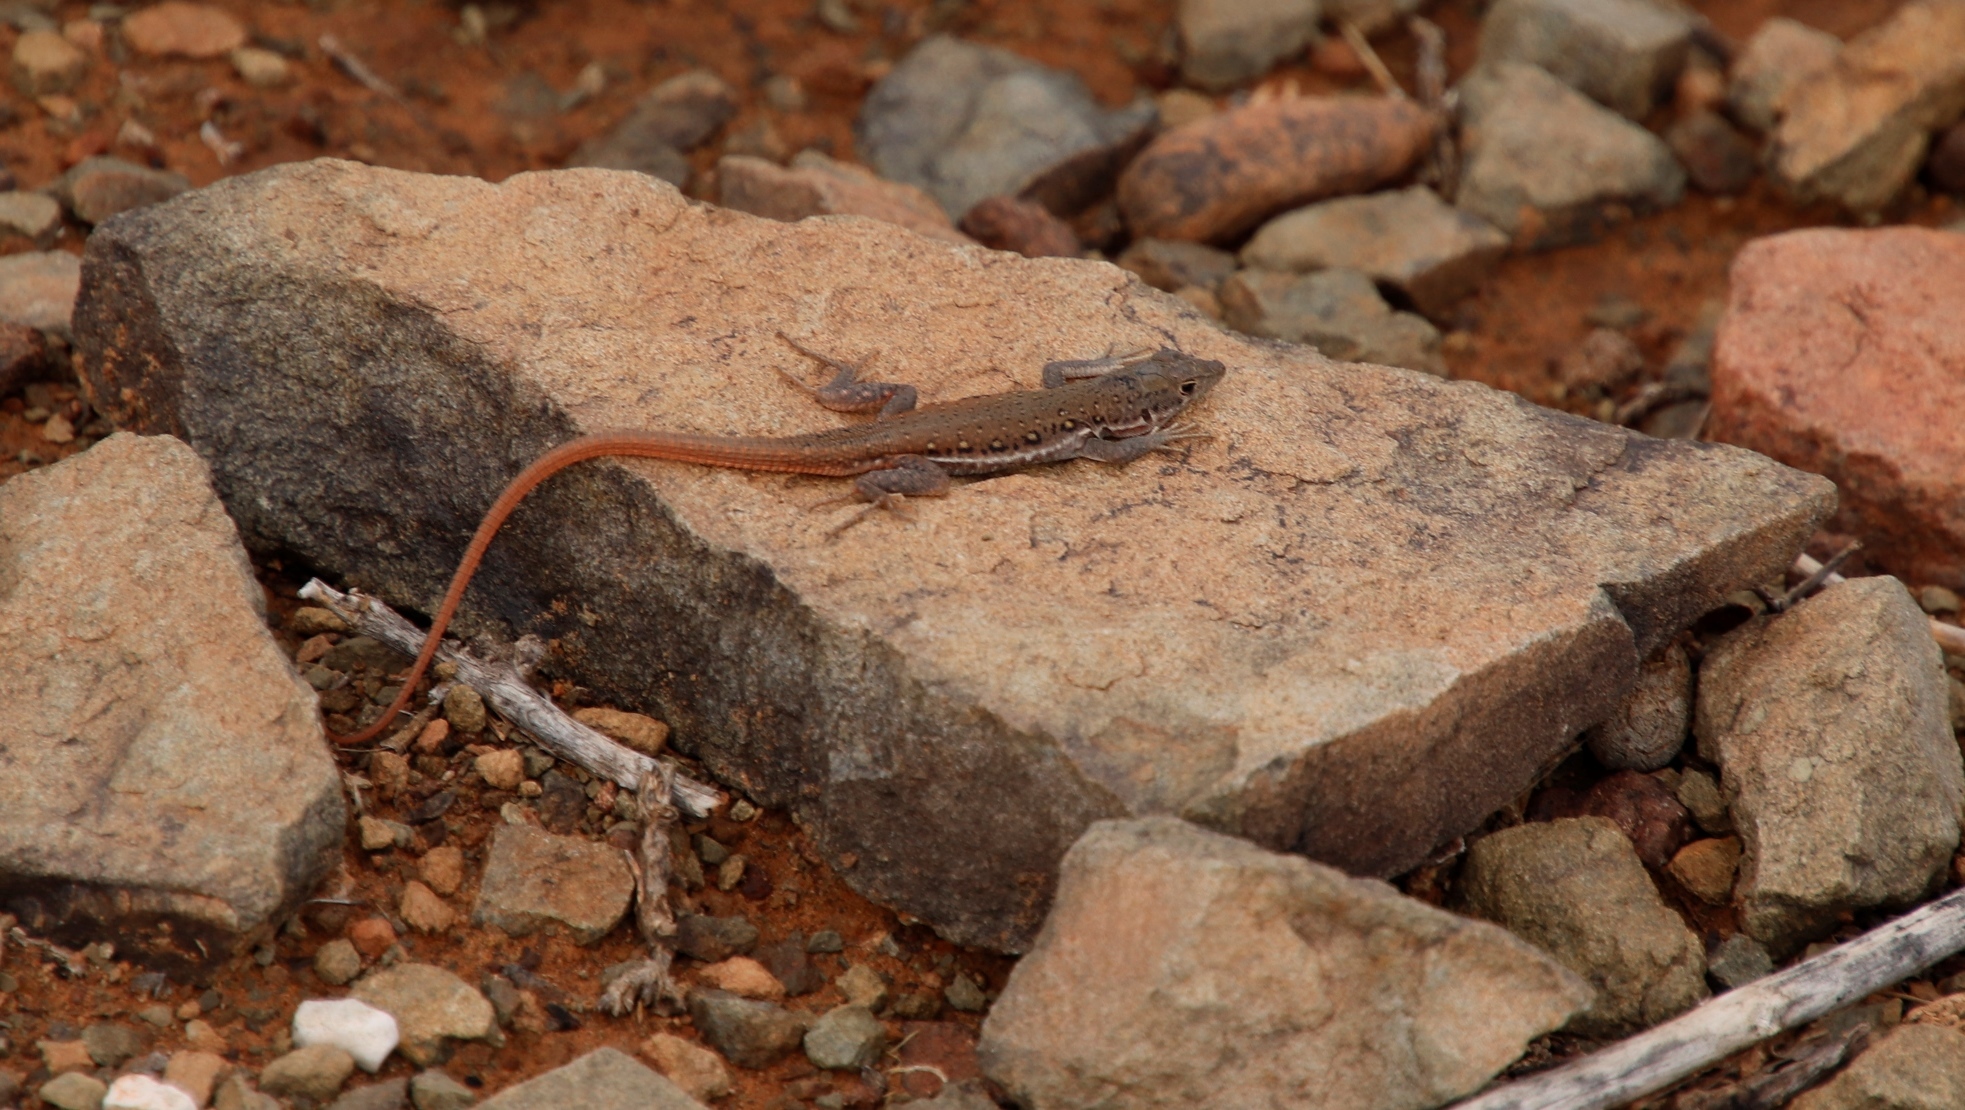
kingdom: Animalia
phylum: Chordata
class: Squamata
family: Lacertidae
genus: Pedioplanis
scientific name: Pedioplanis lineoocellata
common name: Spotted sand lizard
